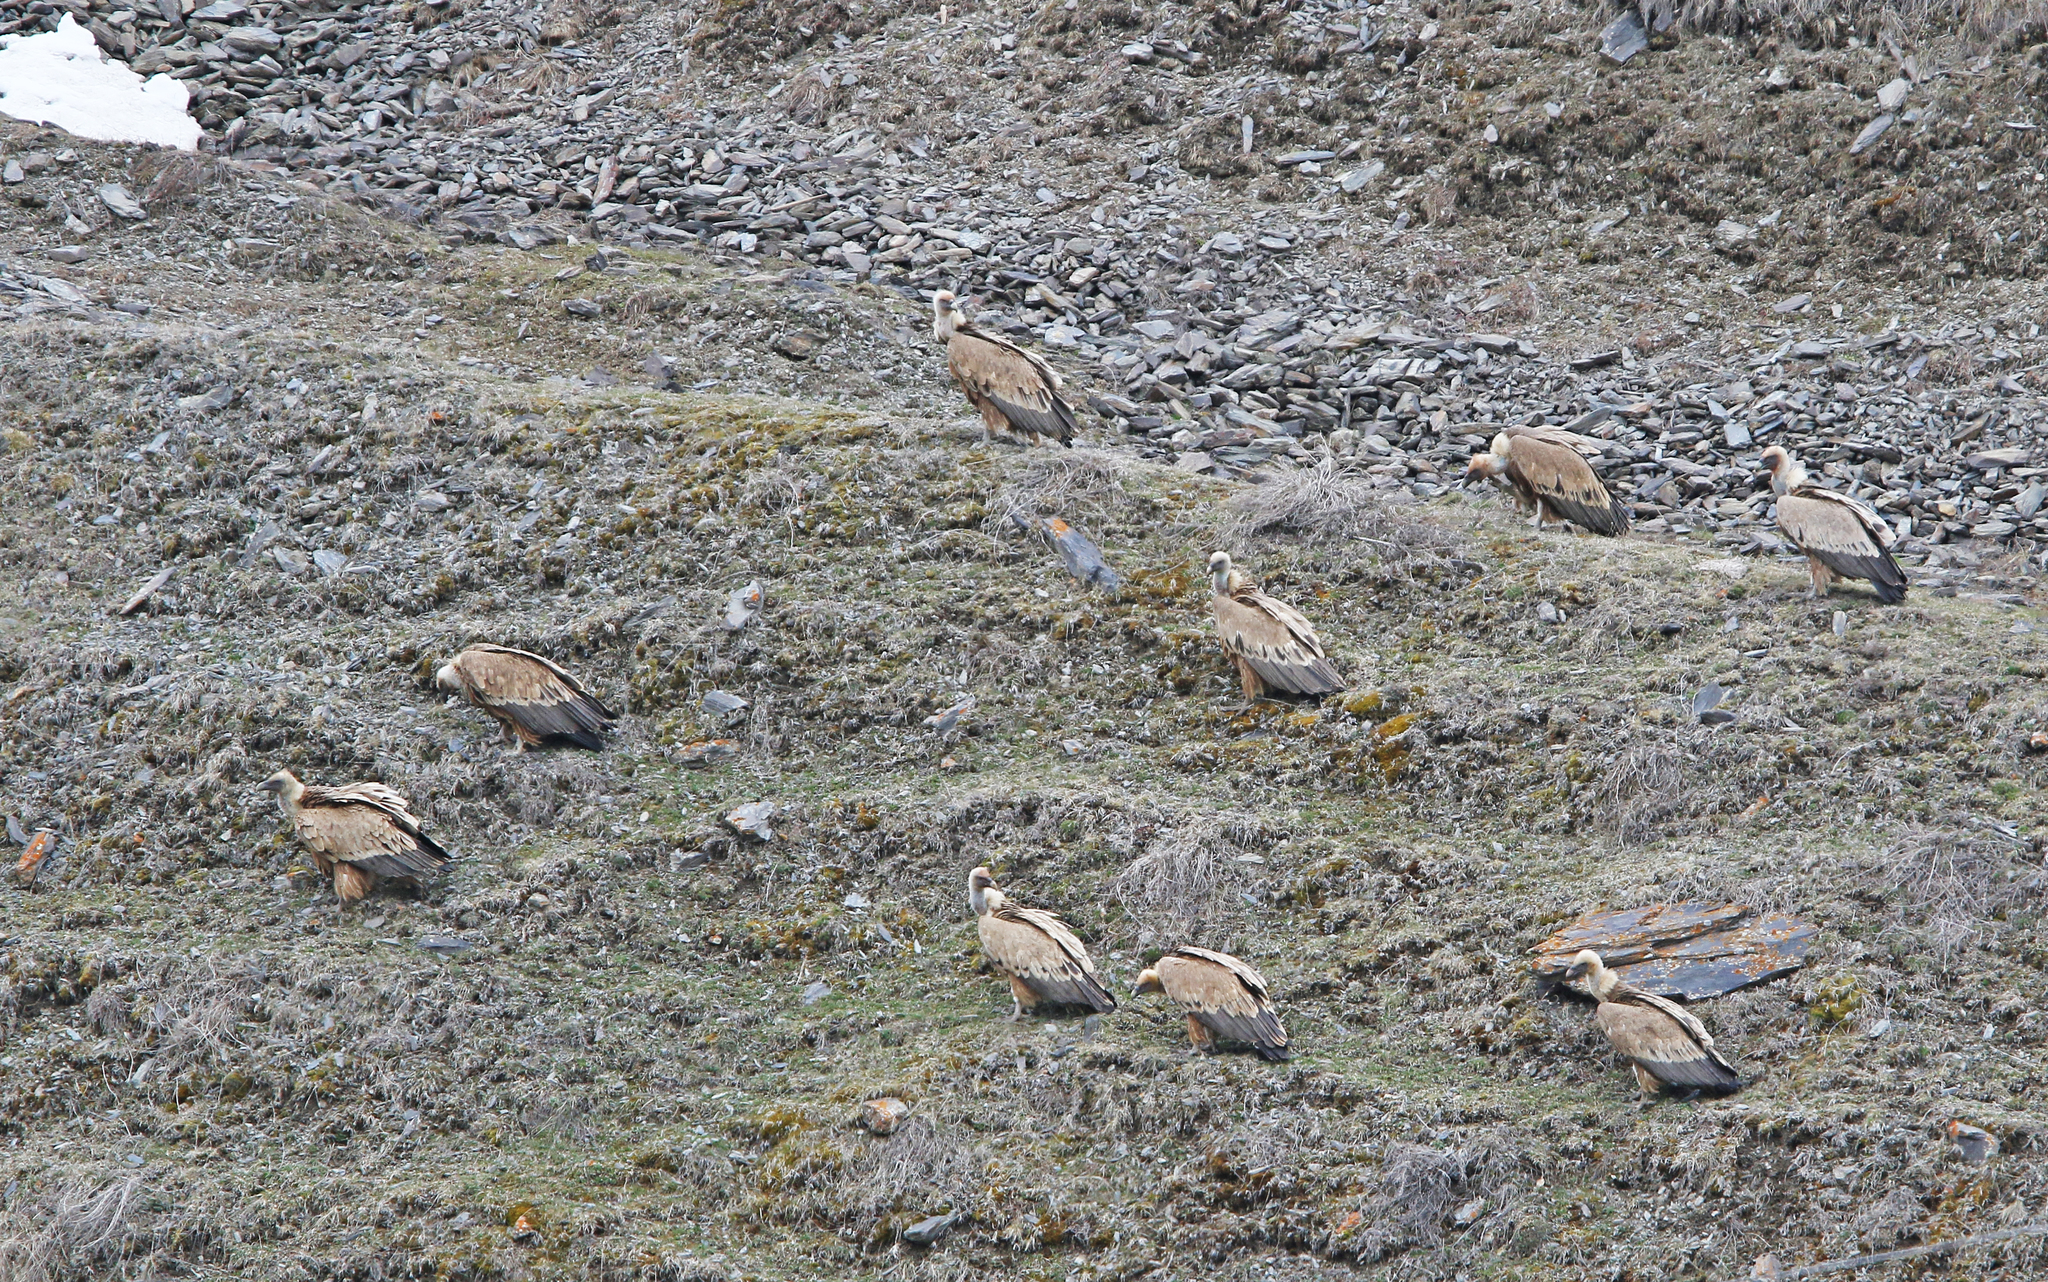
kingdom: Animalia
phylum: Chordata
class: Aves
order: Accipitriformes
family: Accipitridae
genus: Gyps
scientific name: Gyps fulvus
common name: Griffon vulture
